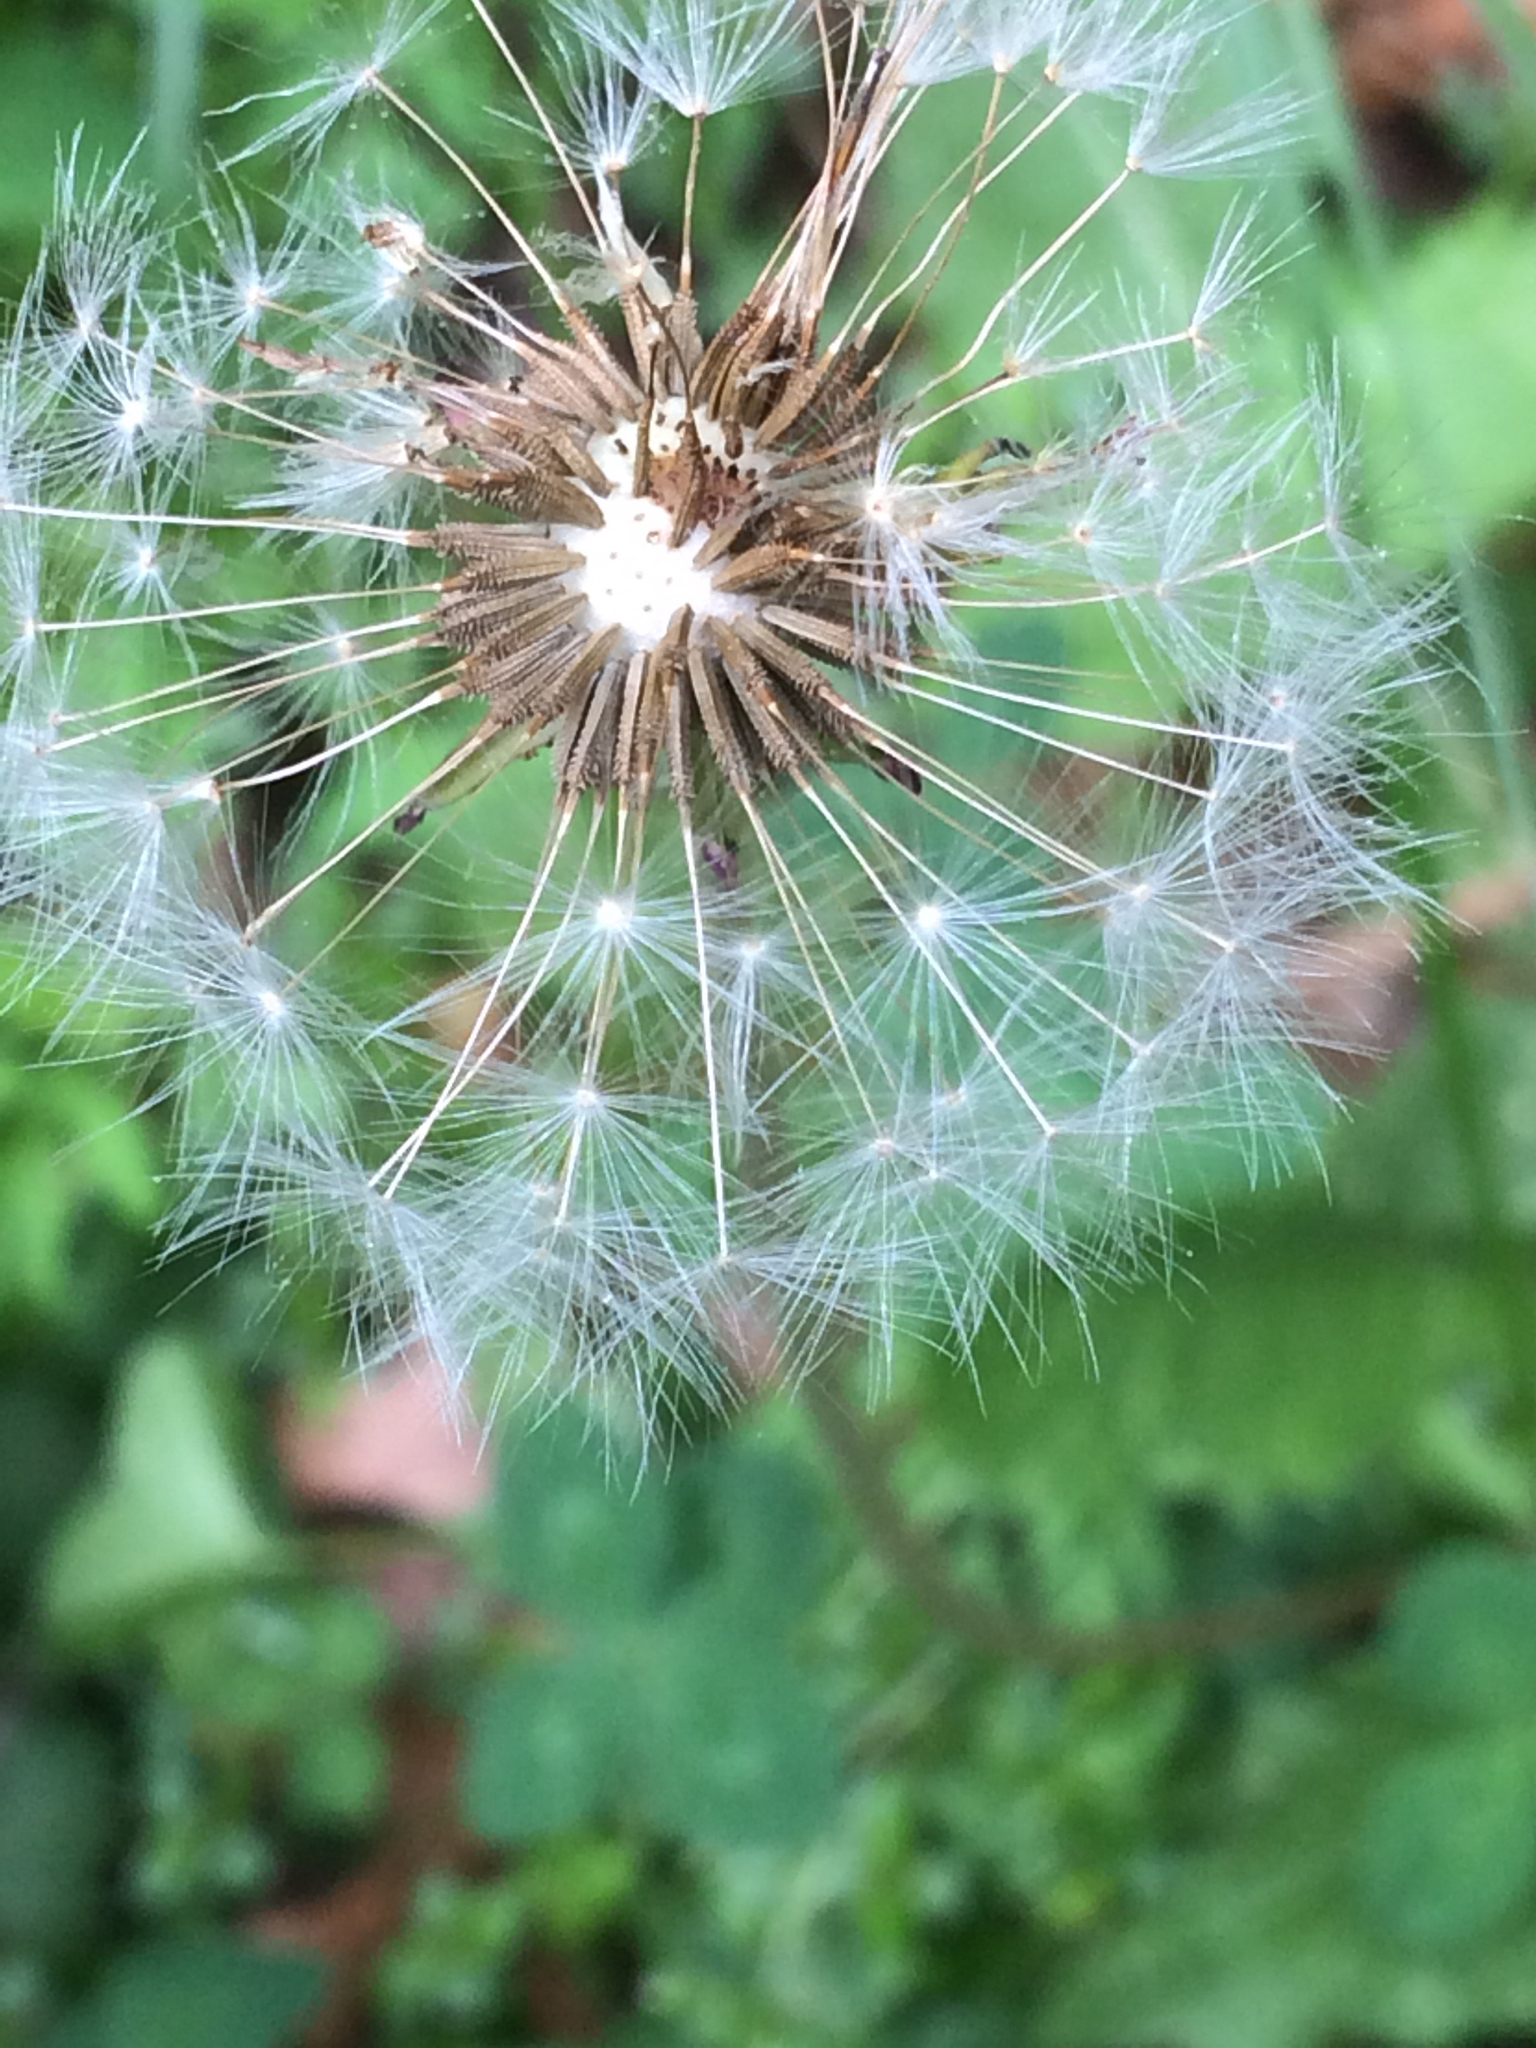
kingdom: Plantae
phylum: Tracheophyta
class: Magnoliopsida
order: Asterales
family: Asteraceae
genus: Taraxacum
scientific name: Taraxacum officinale
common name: Common dandelion
